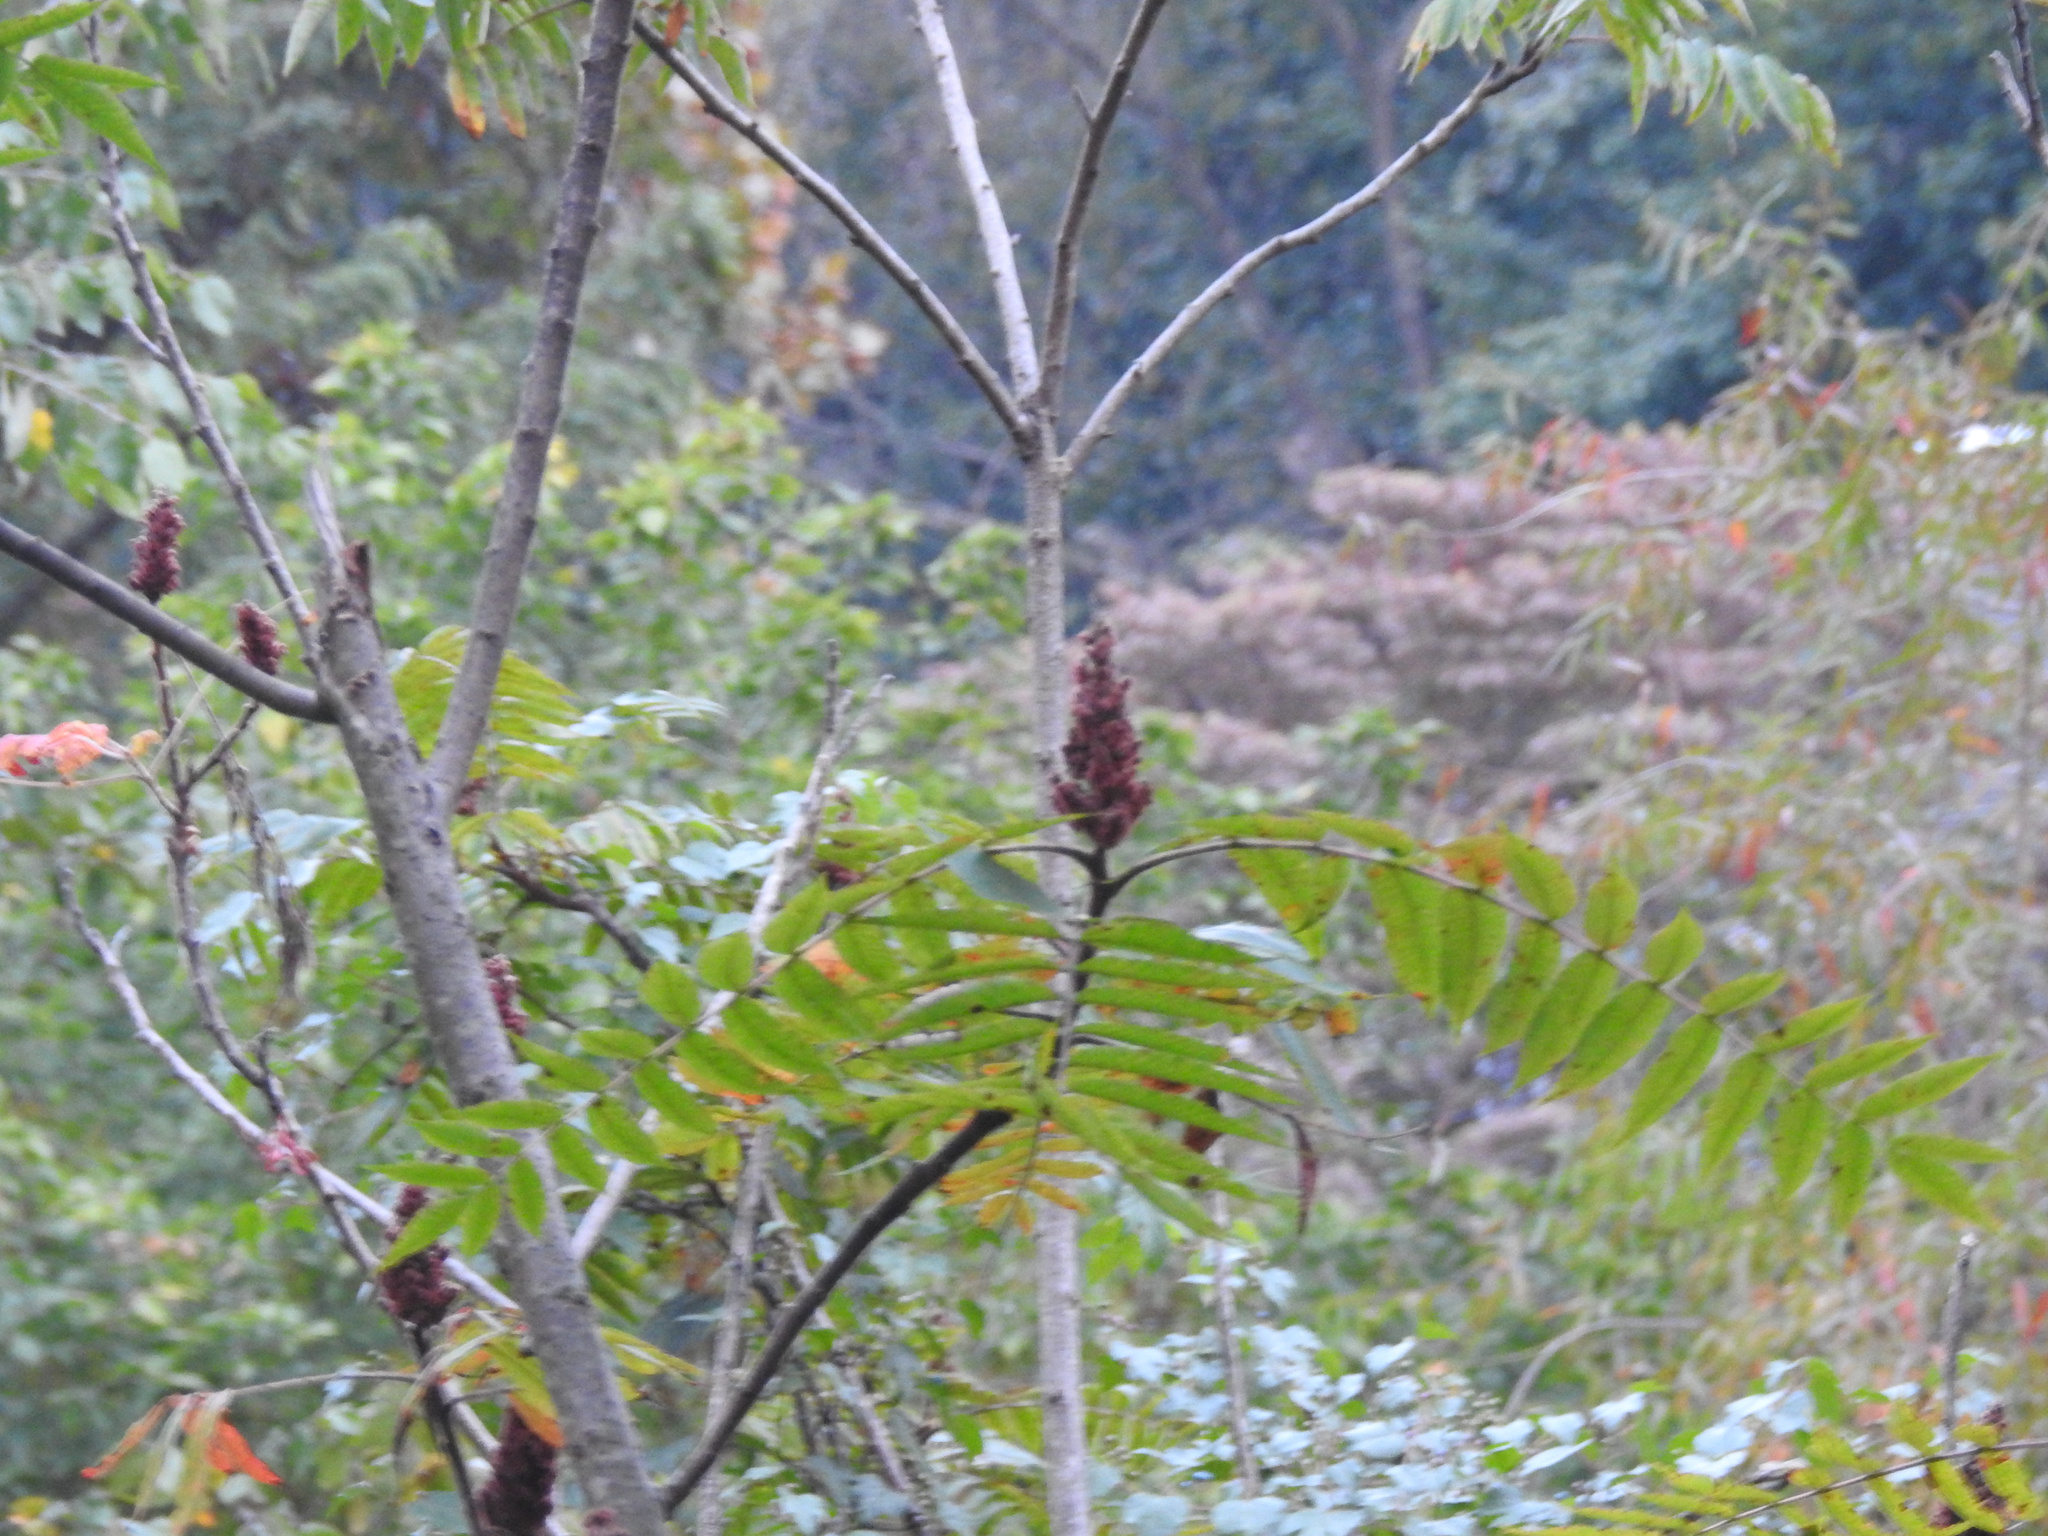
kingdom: Plantae
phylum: Tracheophyta
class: Magnoliopsida
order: Sapindales
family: Anacardiaceae
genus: Rhus
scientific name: Rhus typhina
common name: Staghorn sumac
